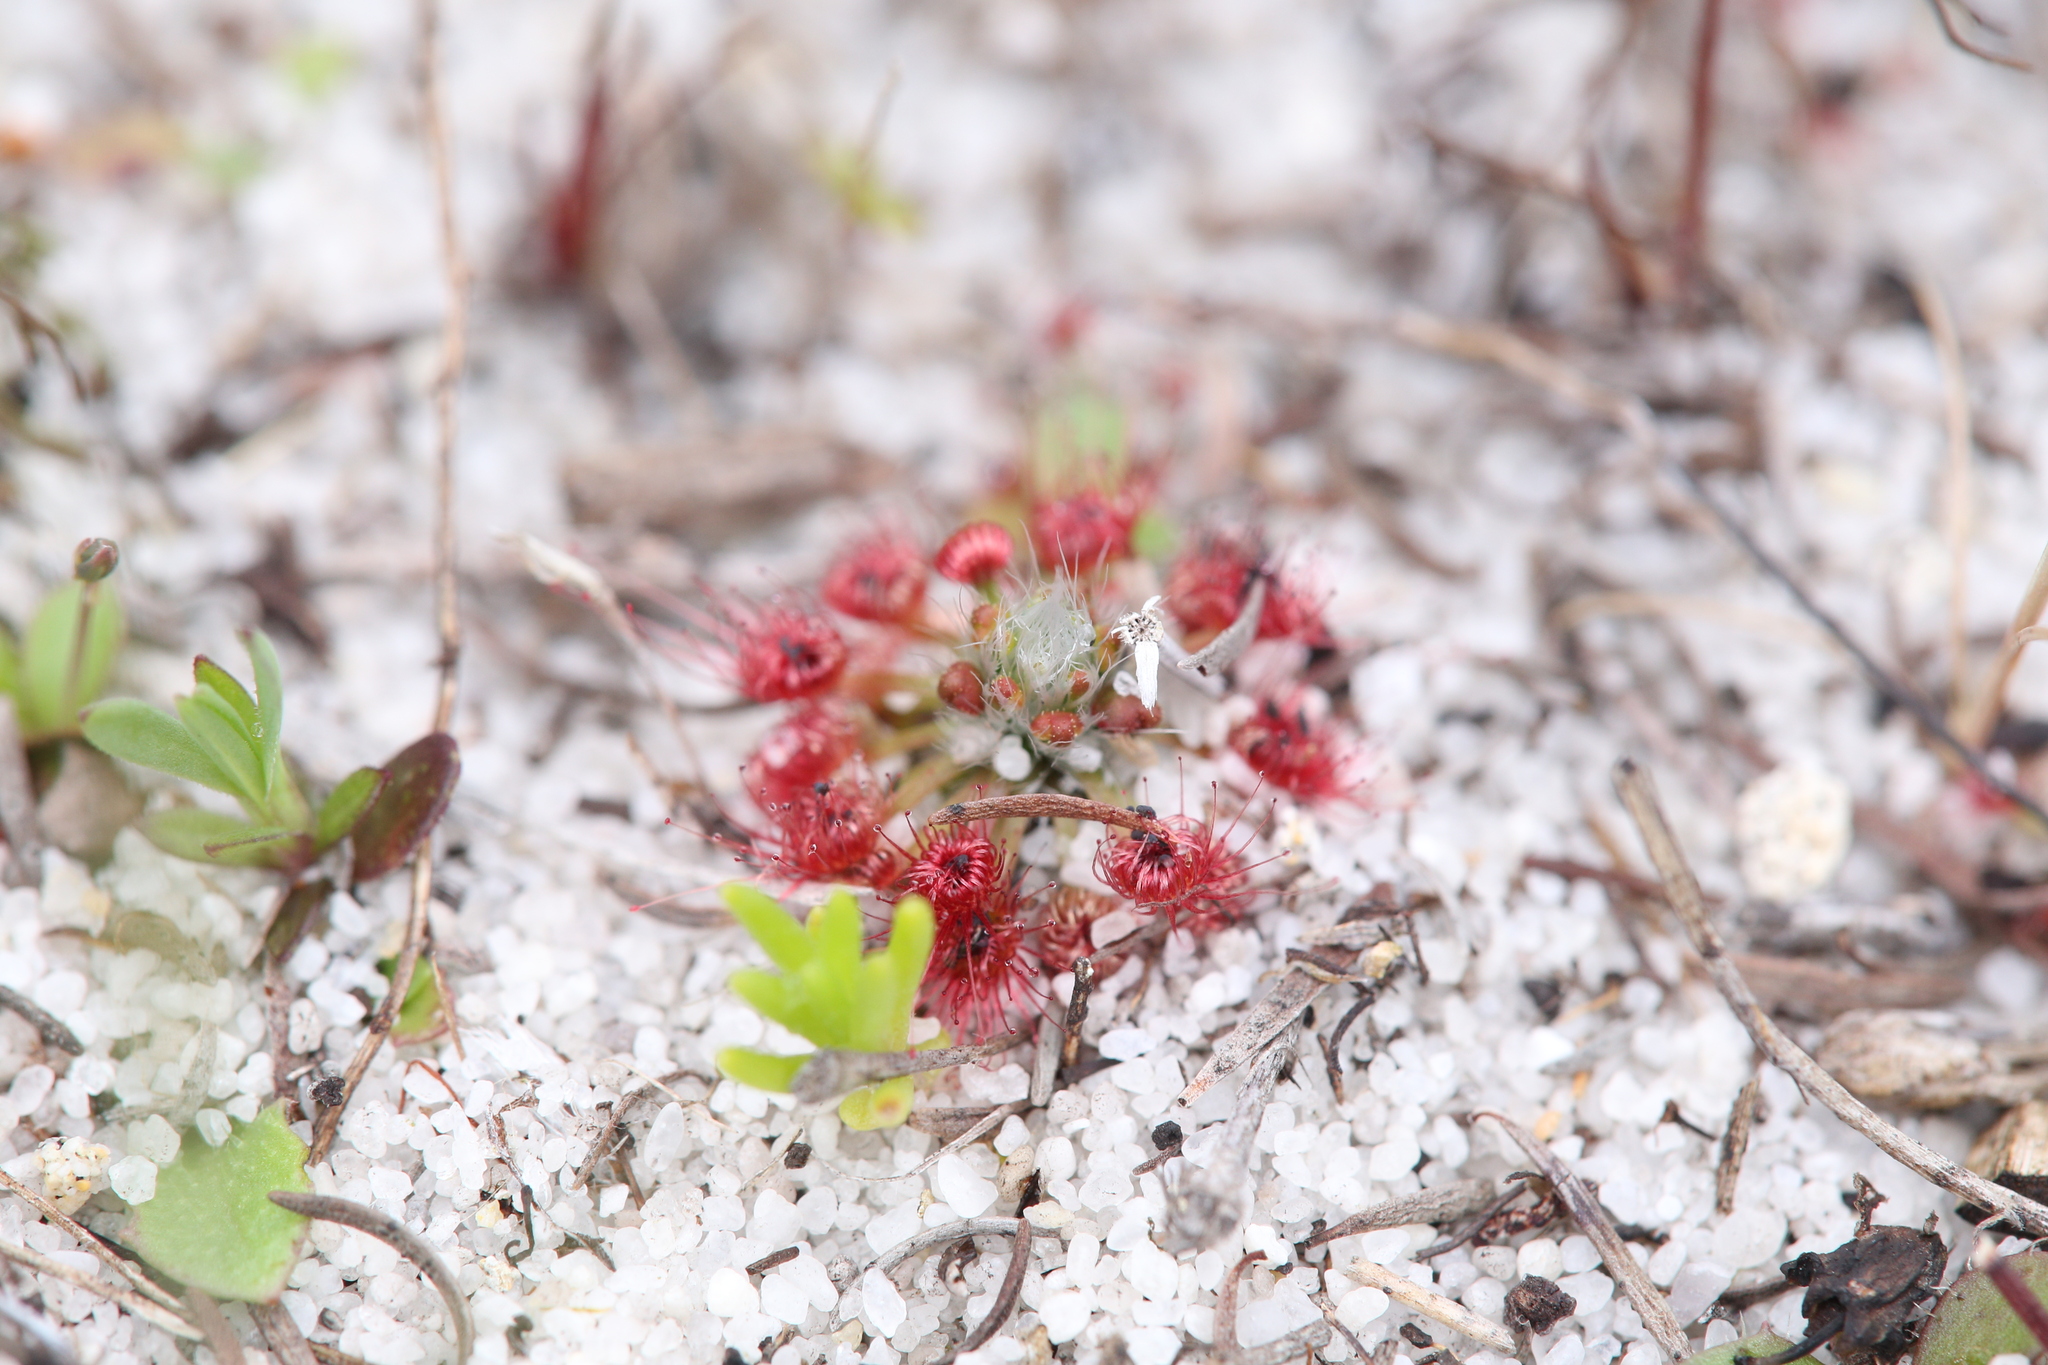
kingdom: Plantae
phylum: Tracheophyta
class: Magnoliopsida
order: Caryophyllales
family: Droseraceae
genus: Drosera
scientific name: Drosera paleacea
